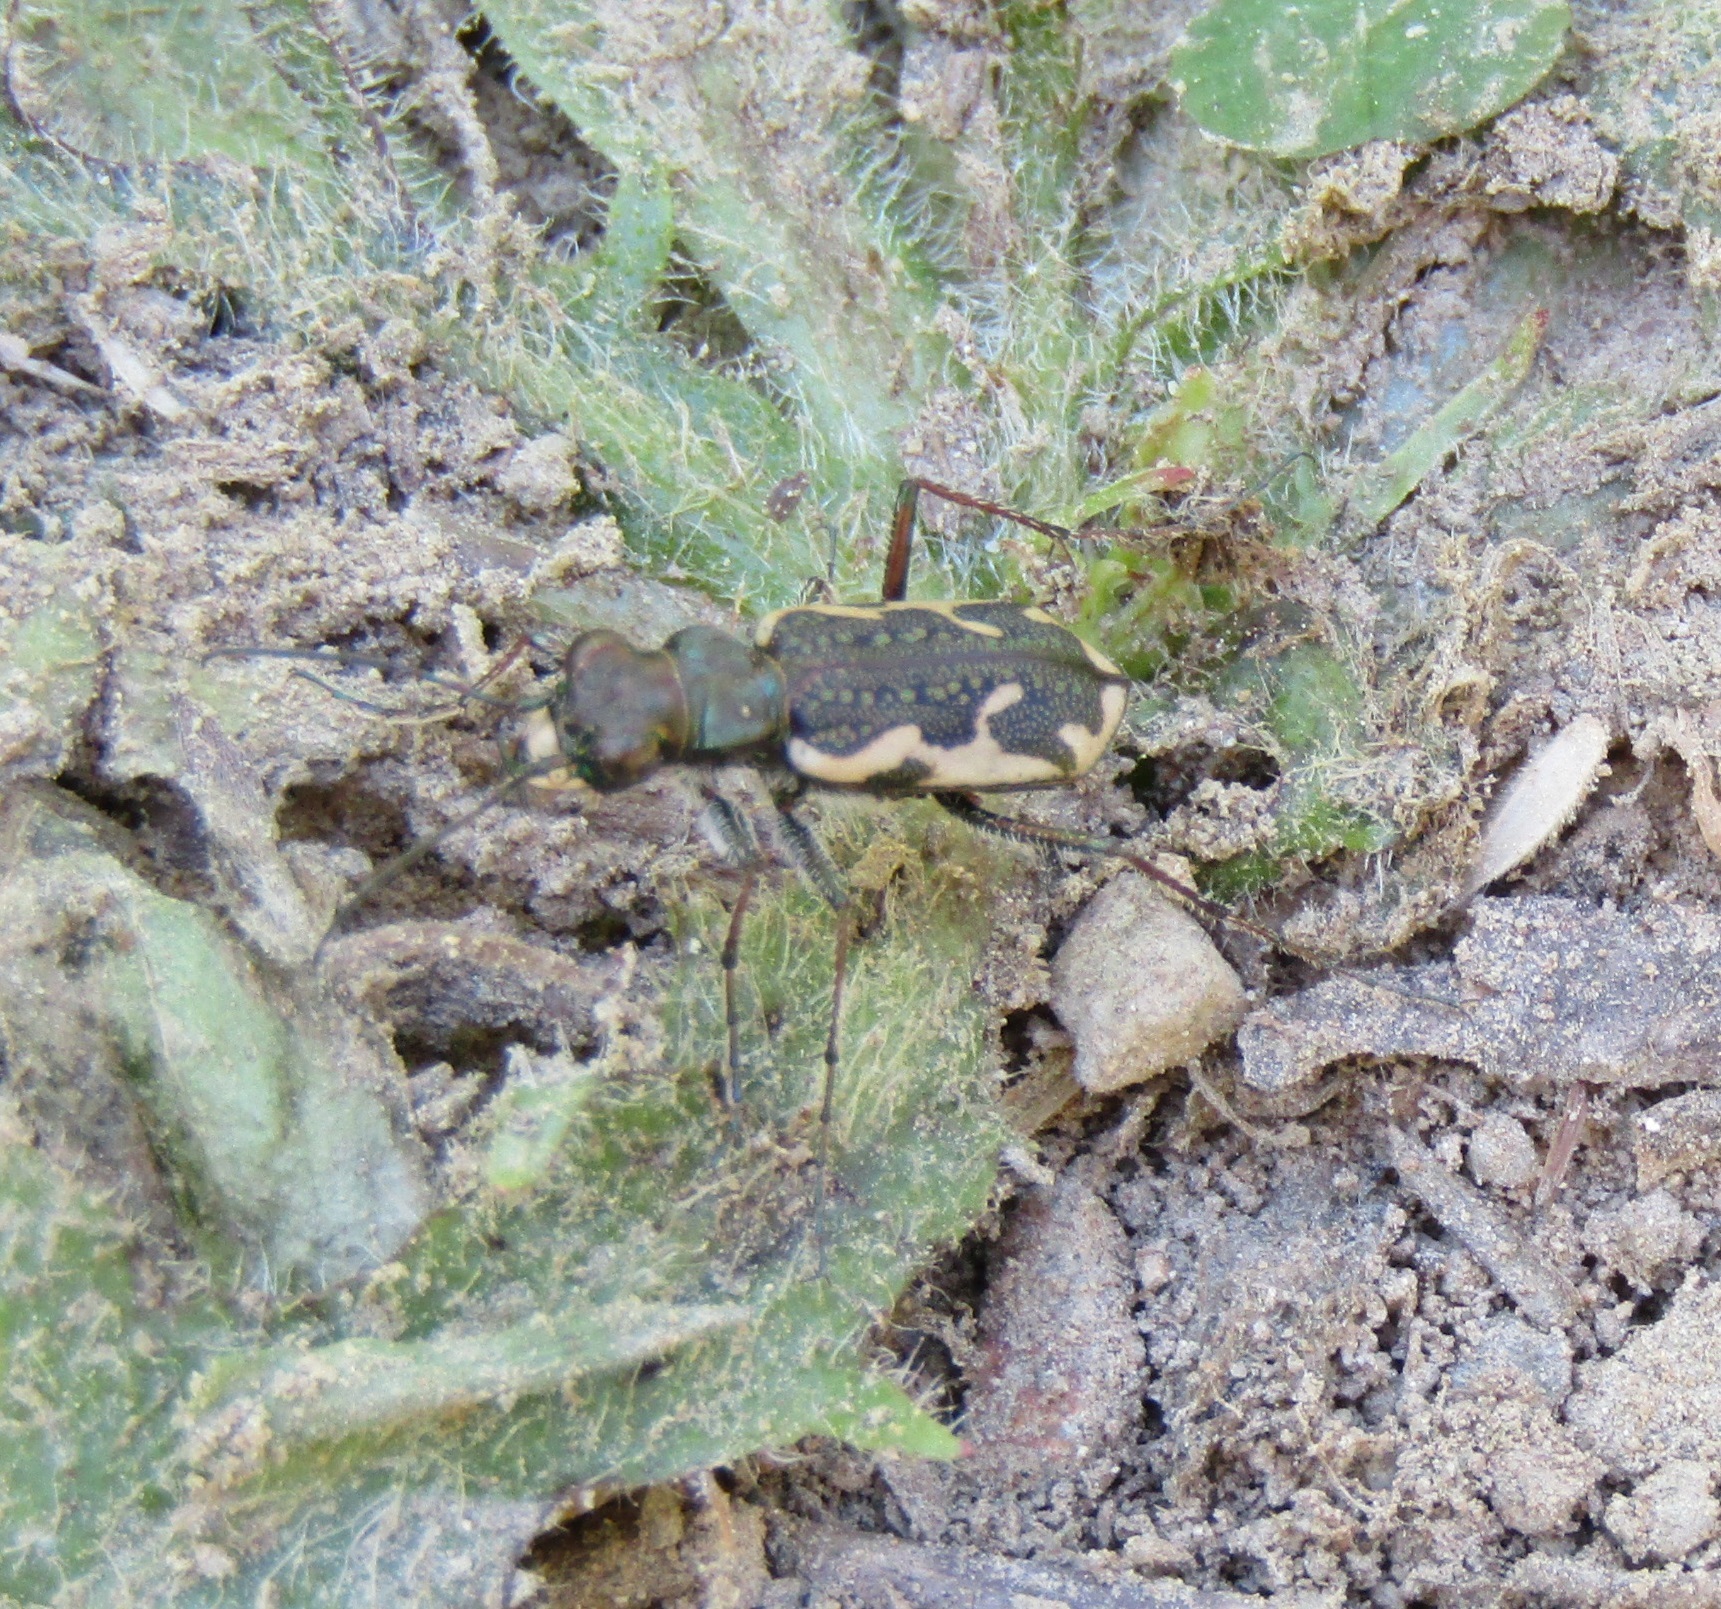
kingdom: Animalia
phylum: Arthropoda
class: Insecta
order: Coleoptera
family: Carabidae
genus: Neocicindela
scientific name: Neocicindela tuberculata
